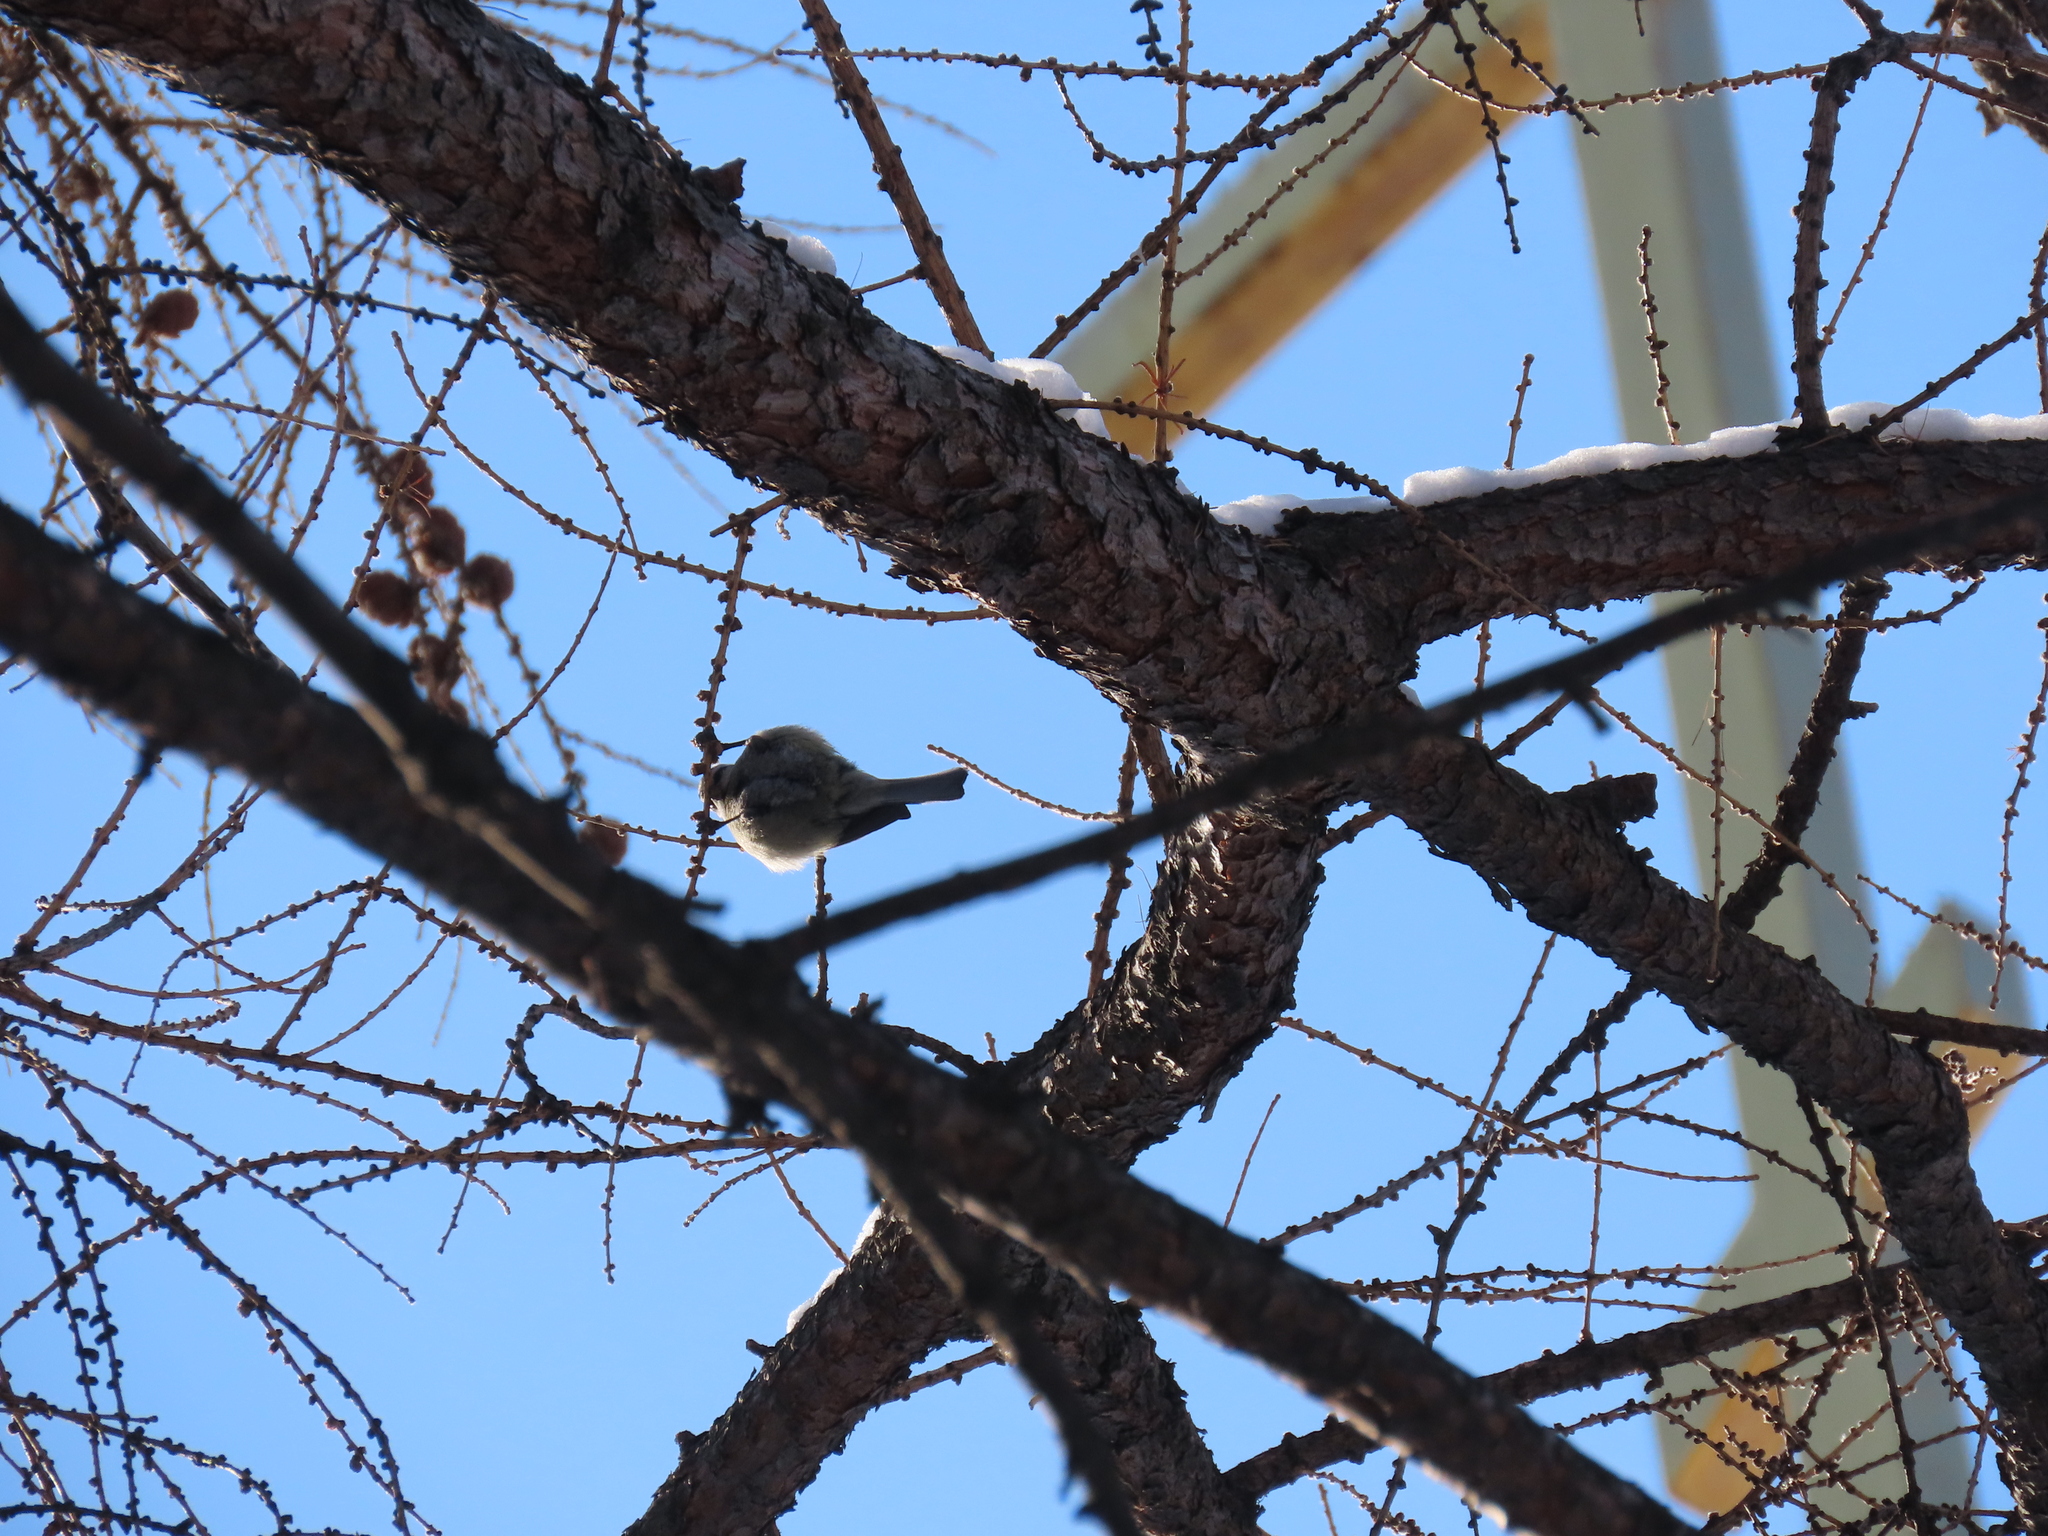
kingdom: Animalia
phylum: Chordata
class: Aves
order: Passeriformes
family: Paridae
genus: Cyanistes
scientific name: Cyanistes caeruleus
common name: Eurasian blue tit
